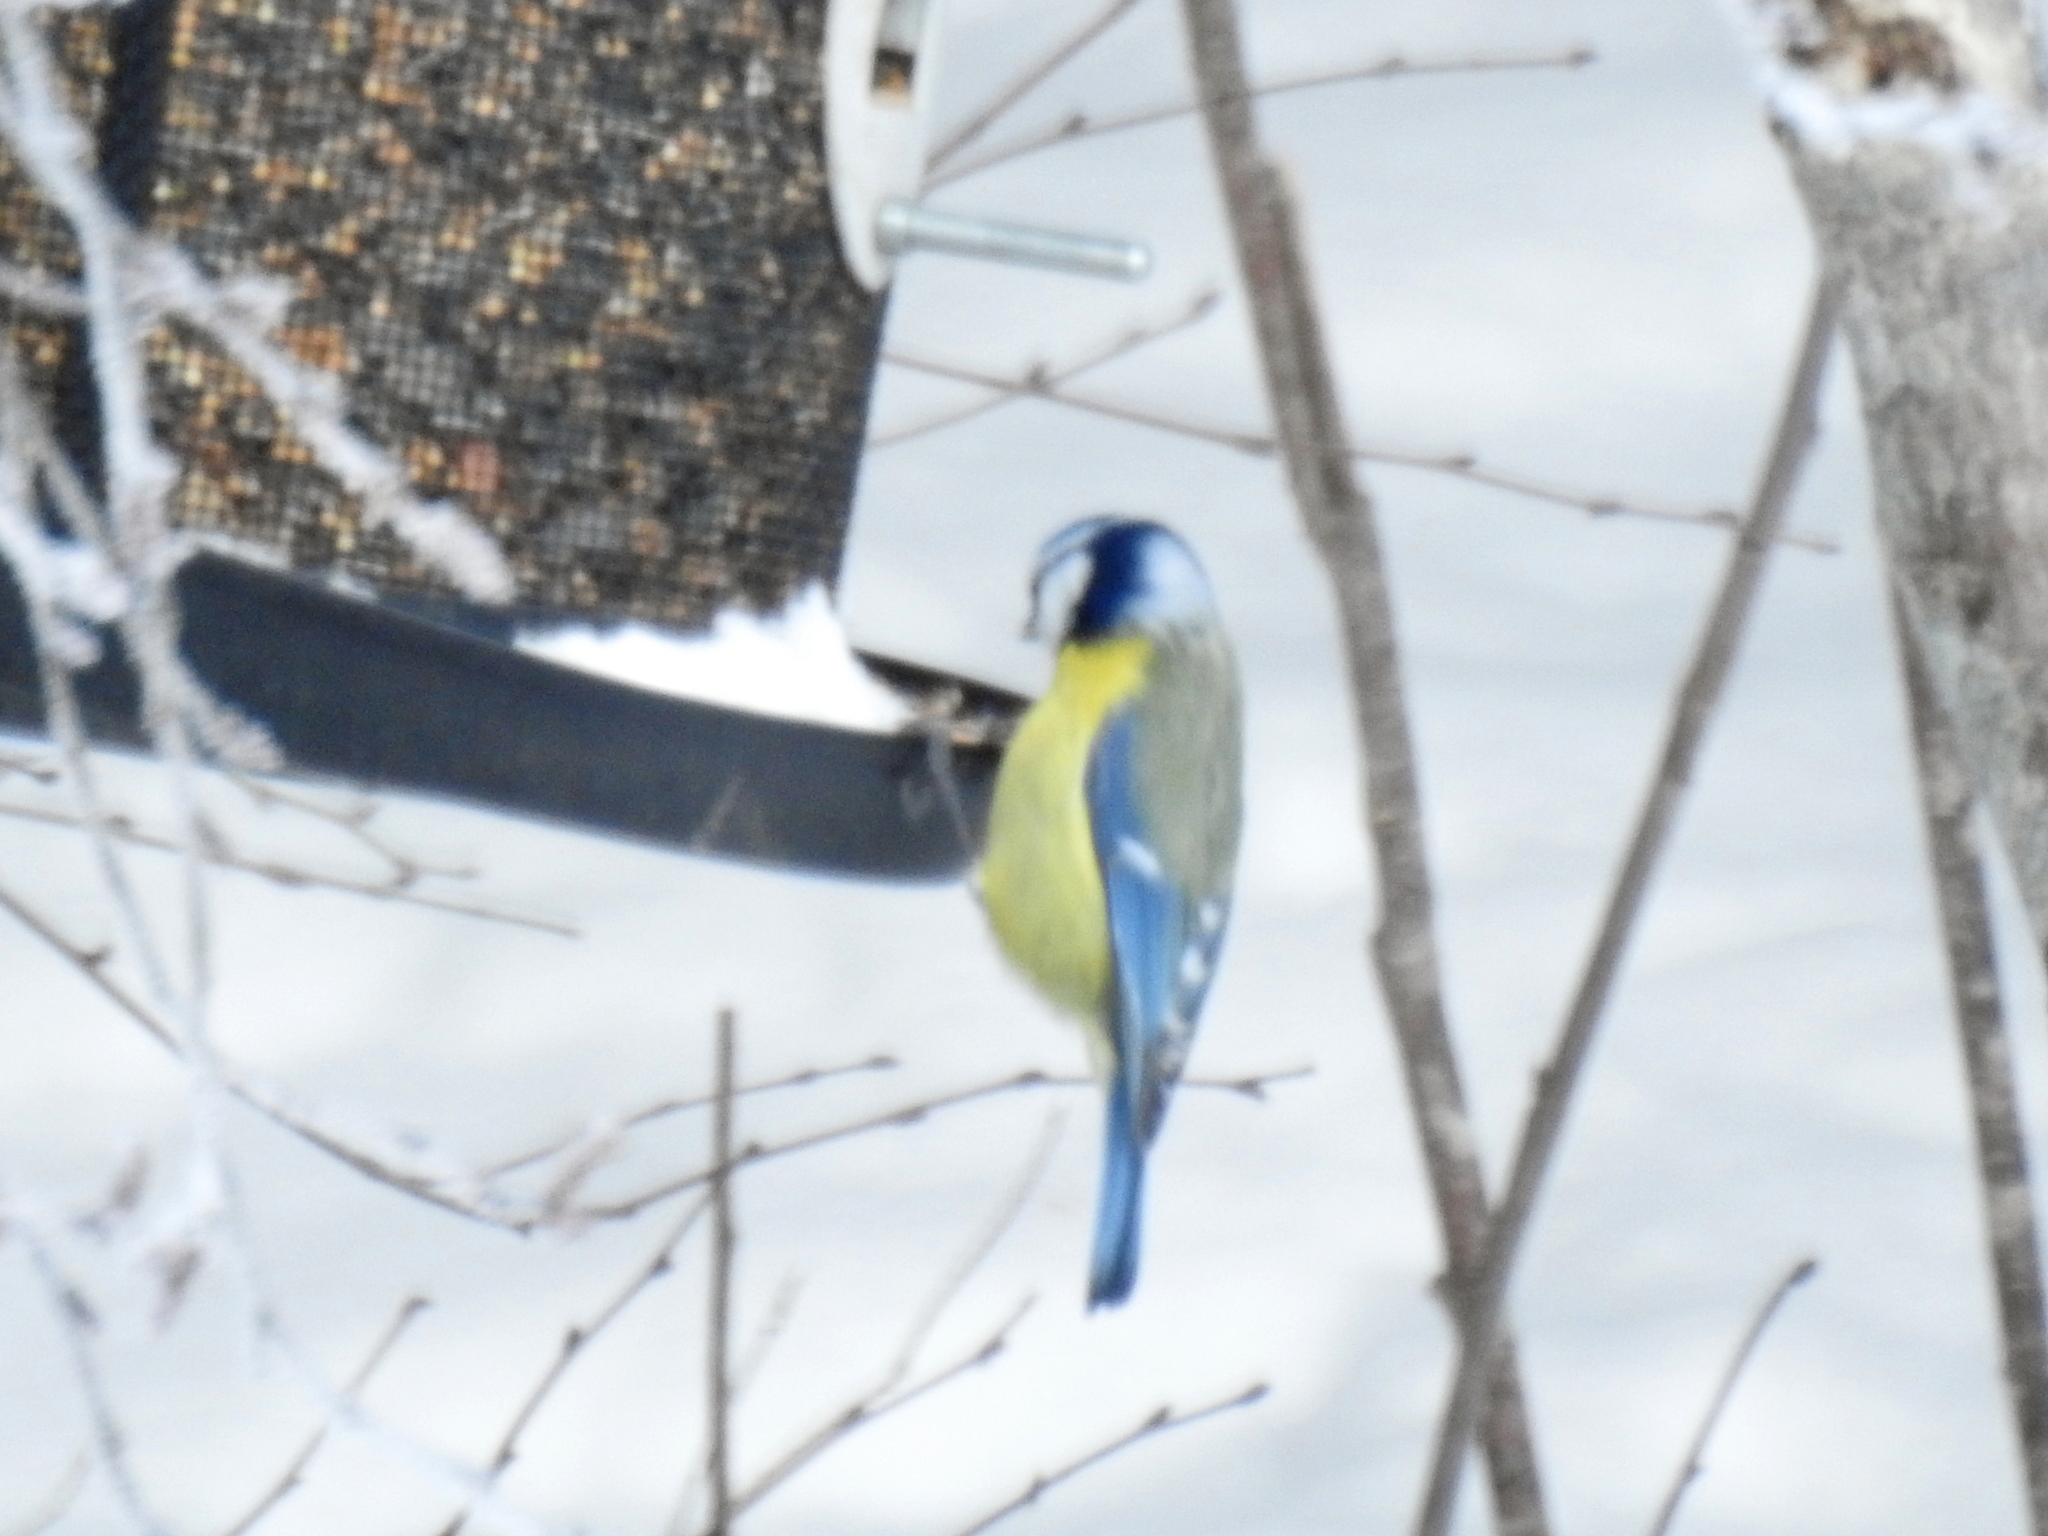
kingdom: Animalia
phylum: Chordata
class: Aves
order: Passeriformes
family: Paridae
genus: Cyanistes
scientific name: Cyanistes caeruleus
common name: Eurasian blue tit
